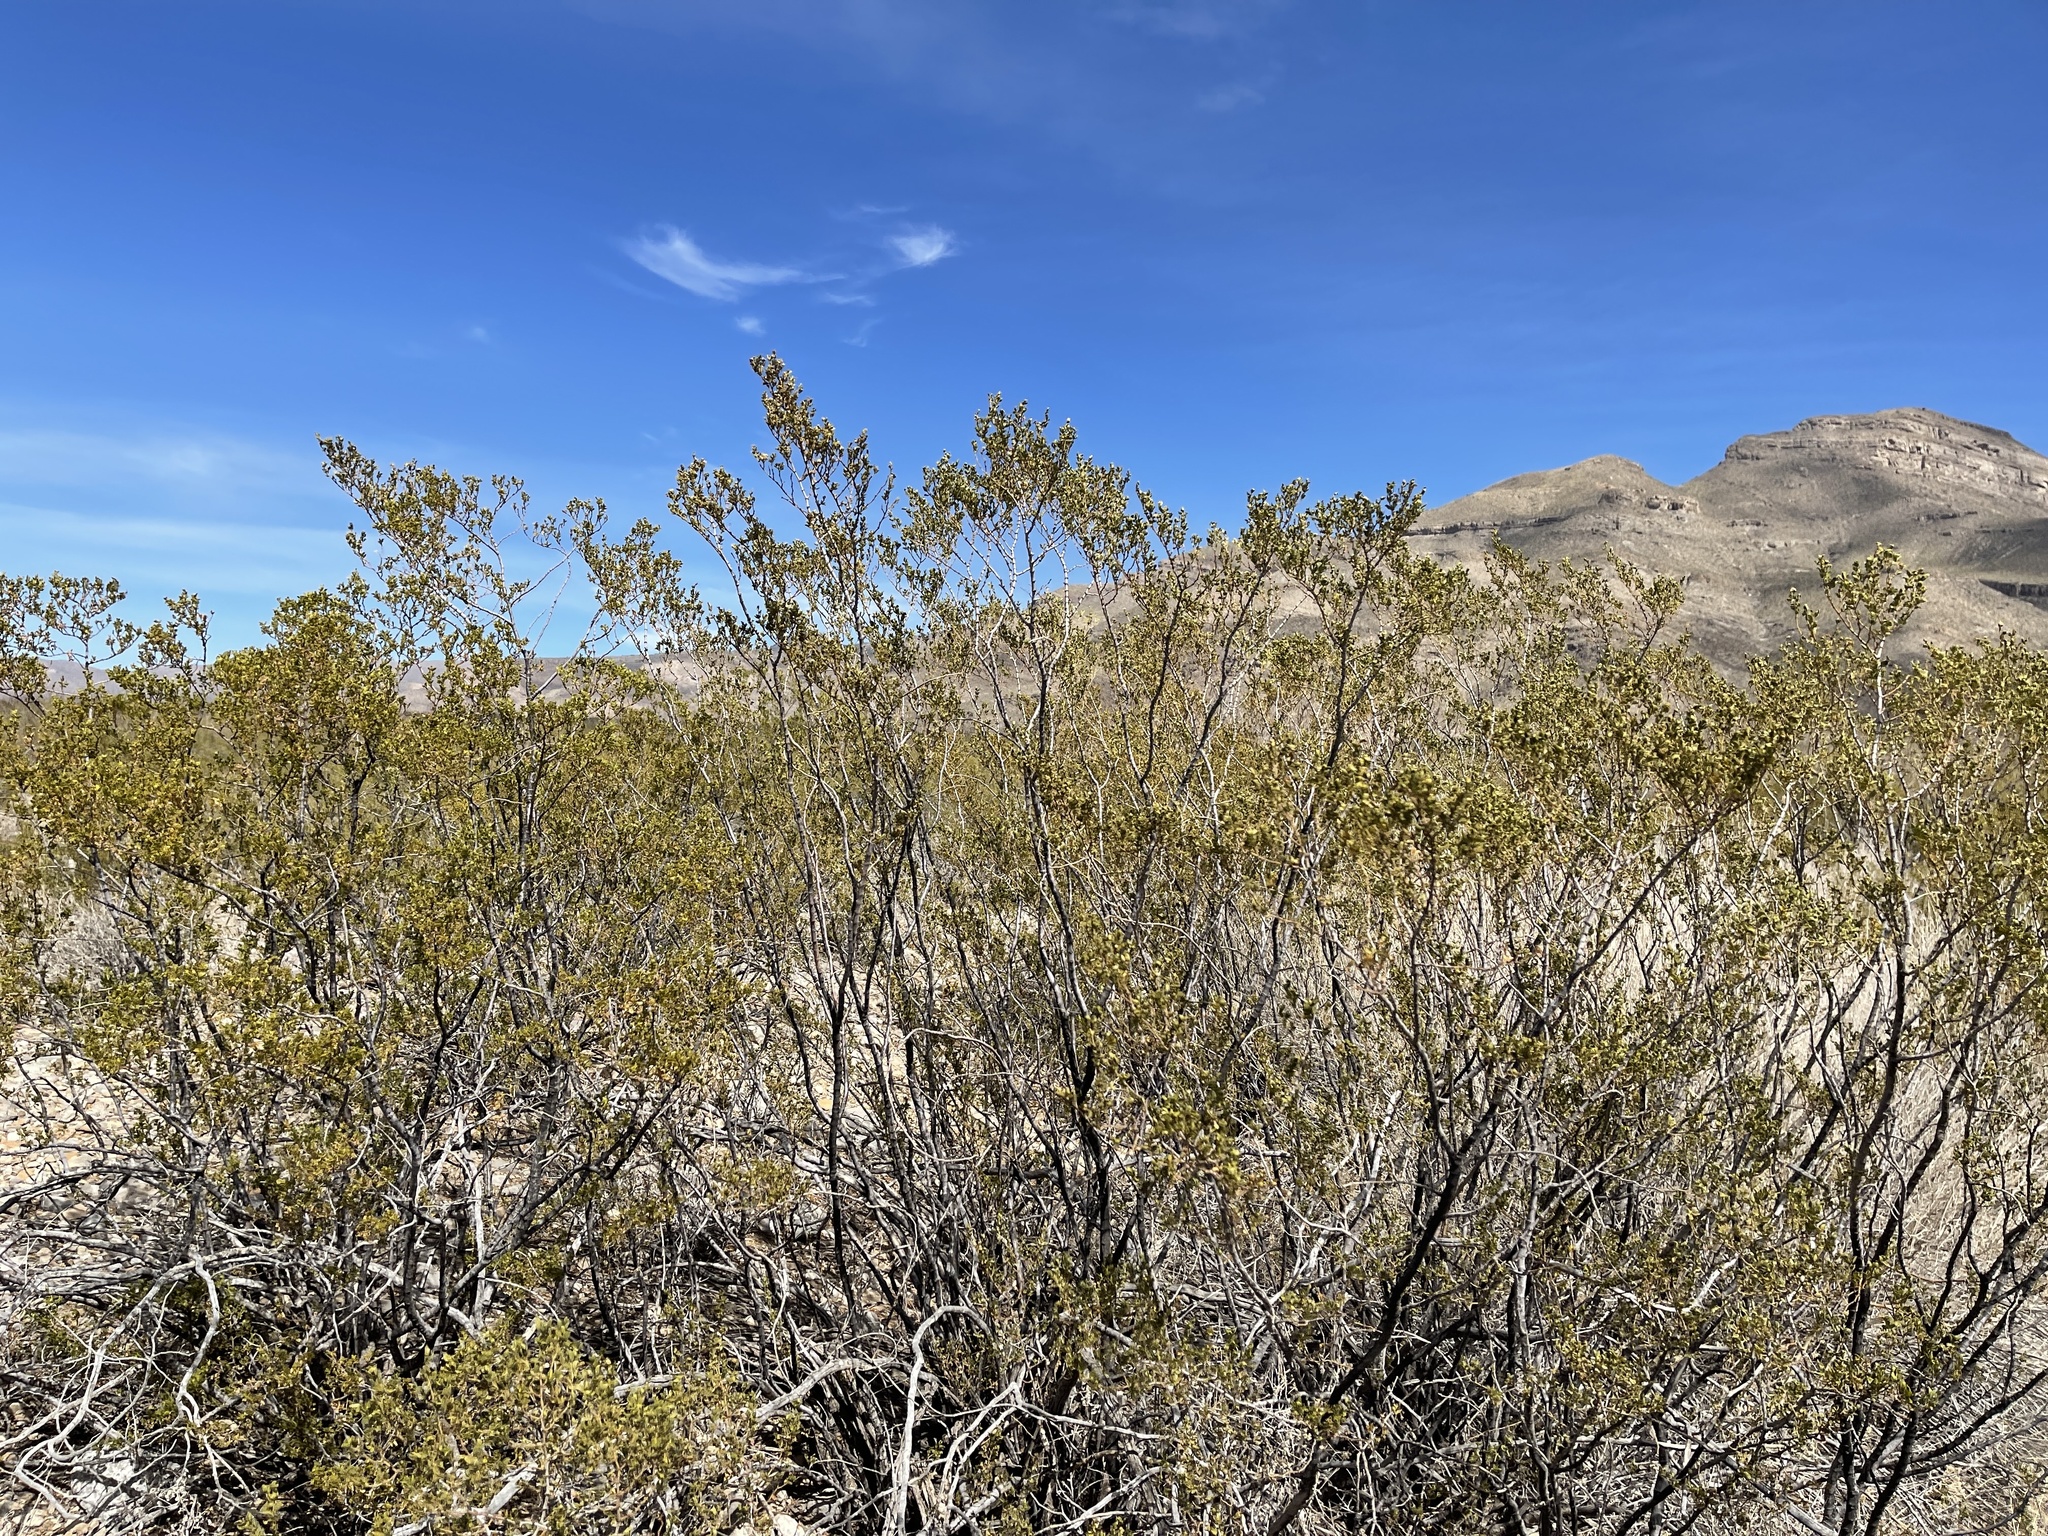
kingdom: Plantae
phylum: Tracheophyta
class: Magnoliopsida
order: Zygophyllales
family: Zygophyllaceae
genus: Larrea
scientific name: Larrea tridentata
